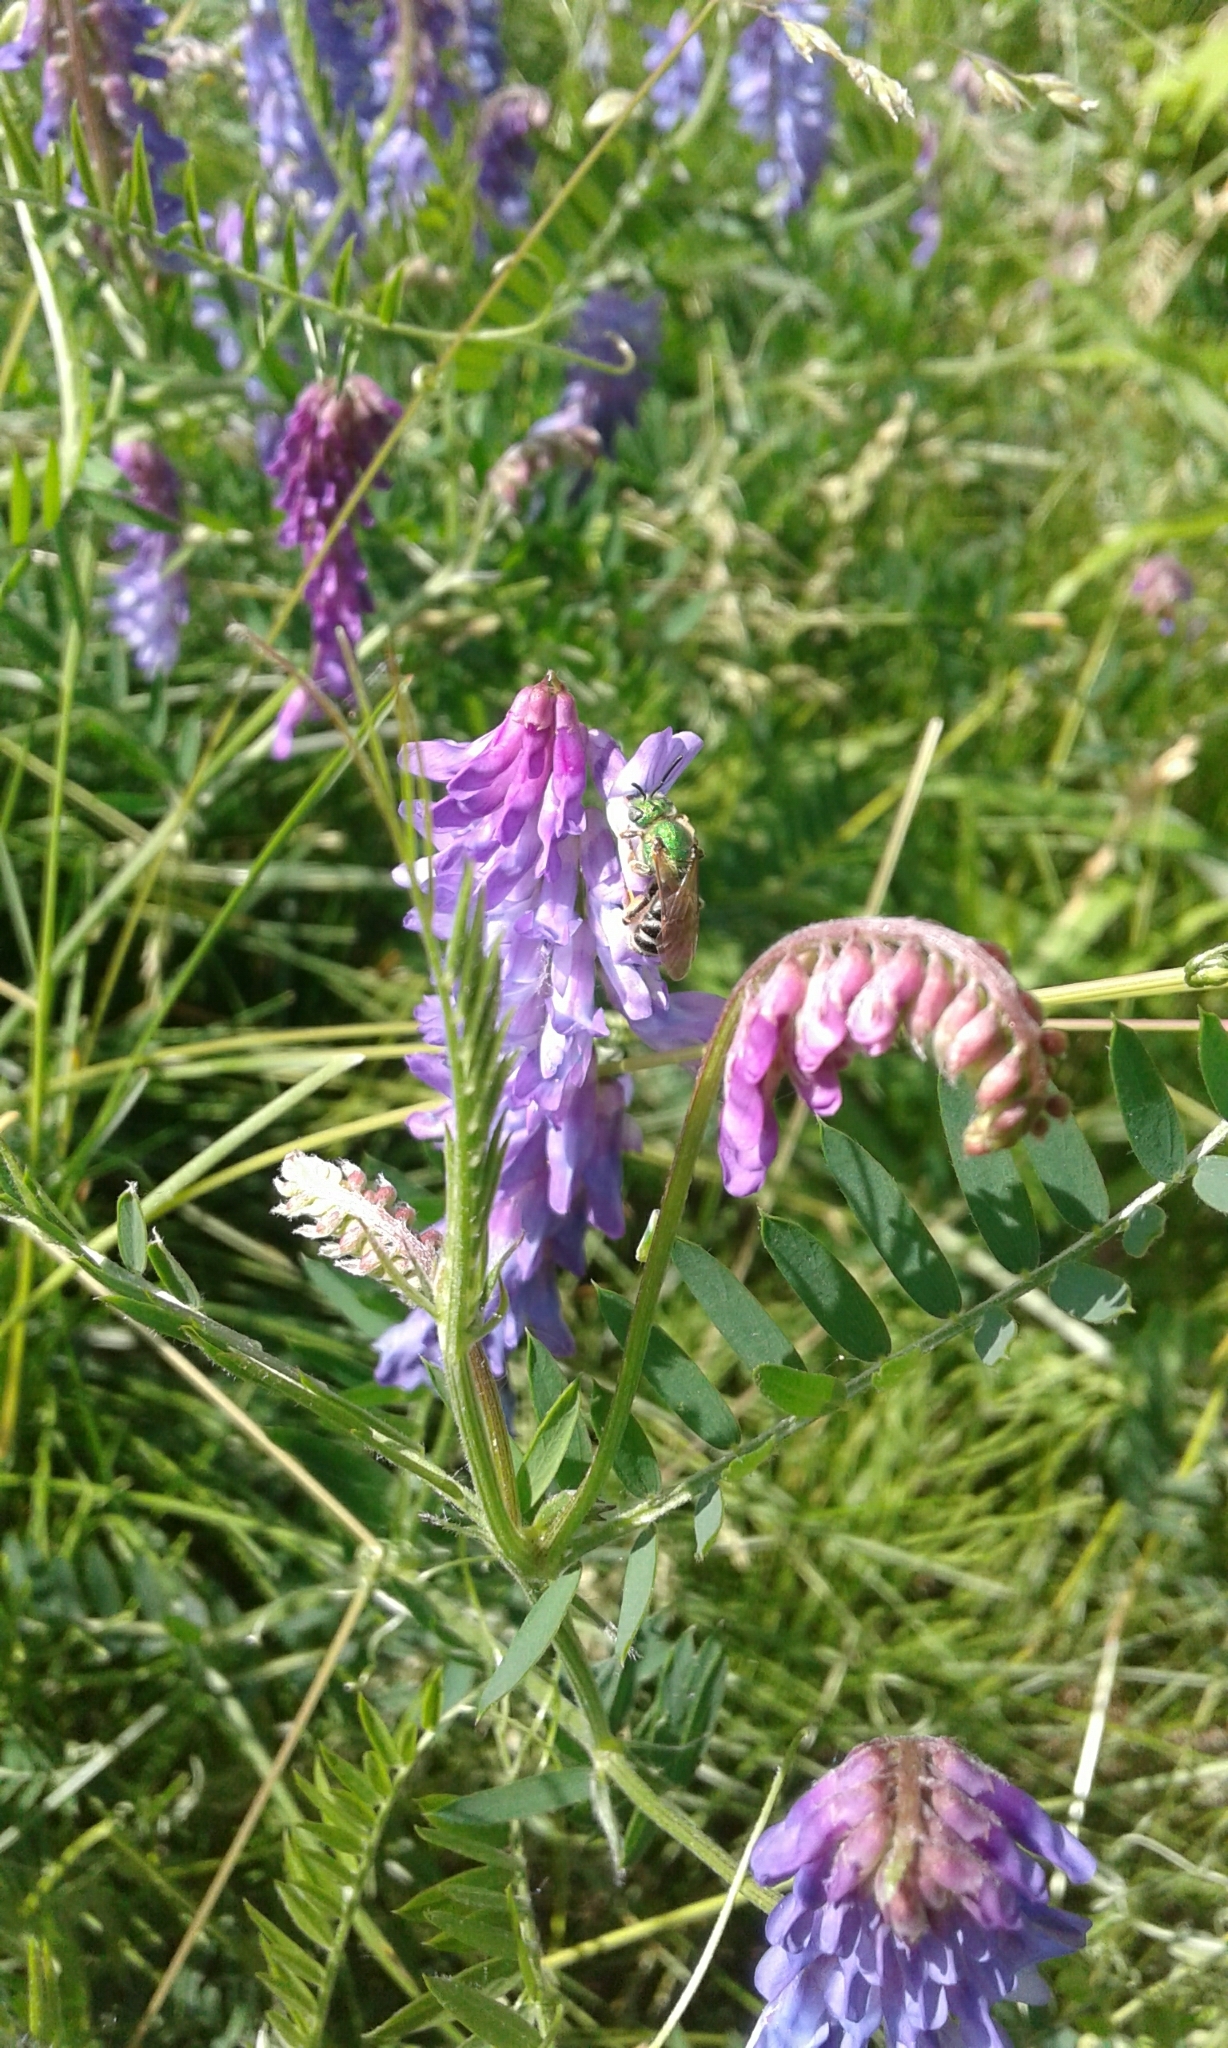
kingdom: Animalia
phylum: Arthropoda
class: Insecta
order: Hymenoptera
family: Halictidae
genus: Agapostemon
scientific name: Agapostemon virescens
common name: Bicolored striped sweat bee
